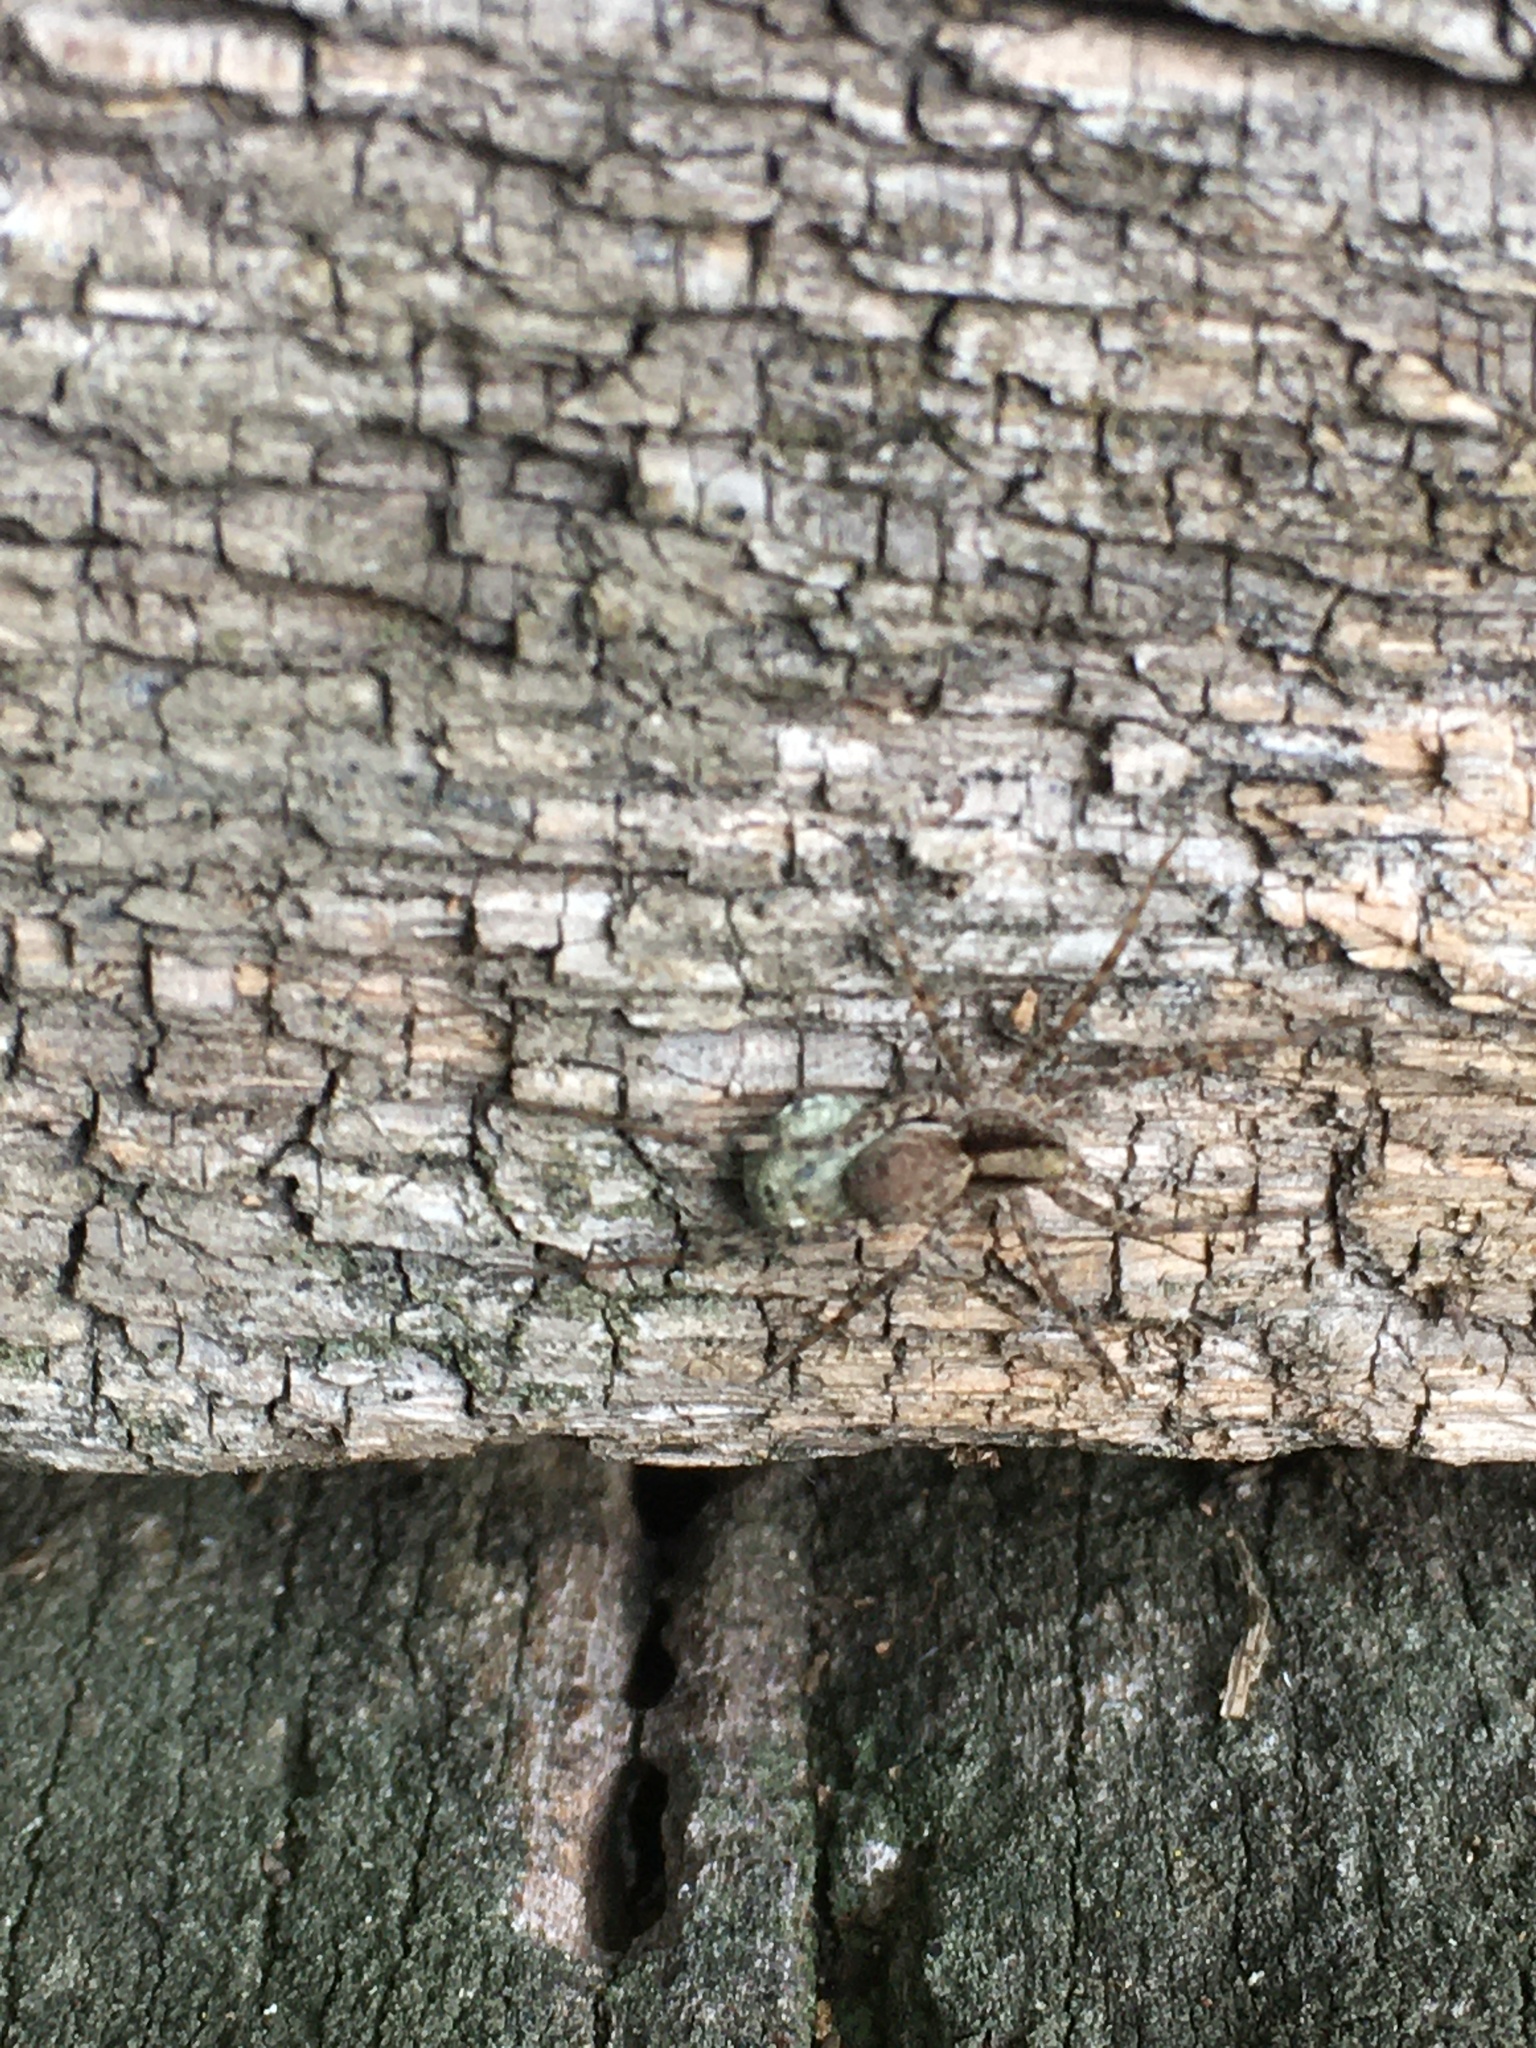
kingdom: Animalia
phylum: Arthropoda
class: Arachnida
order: Araneae
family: Lycosidae
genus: Pardosa
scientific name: Pardosa
